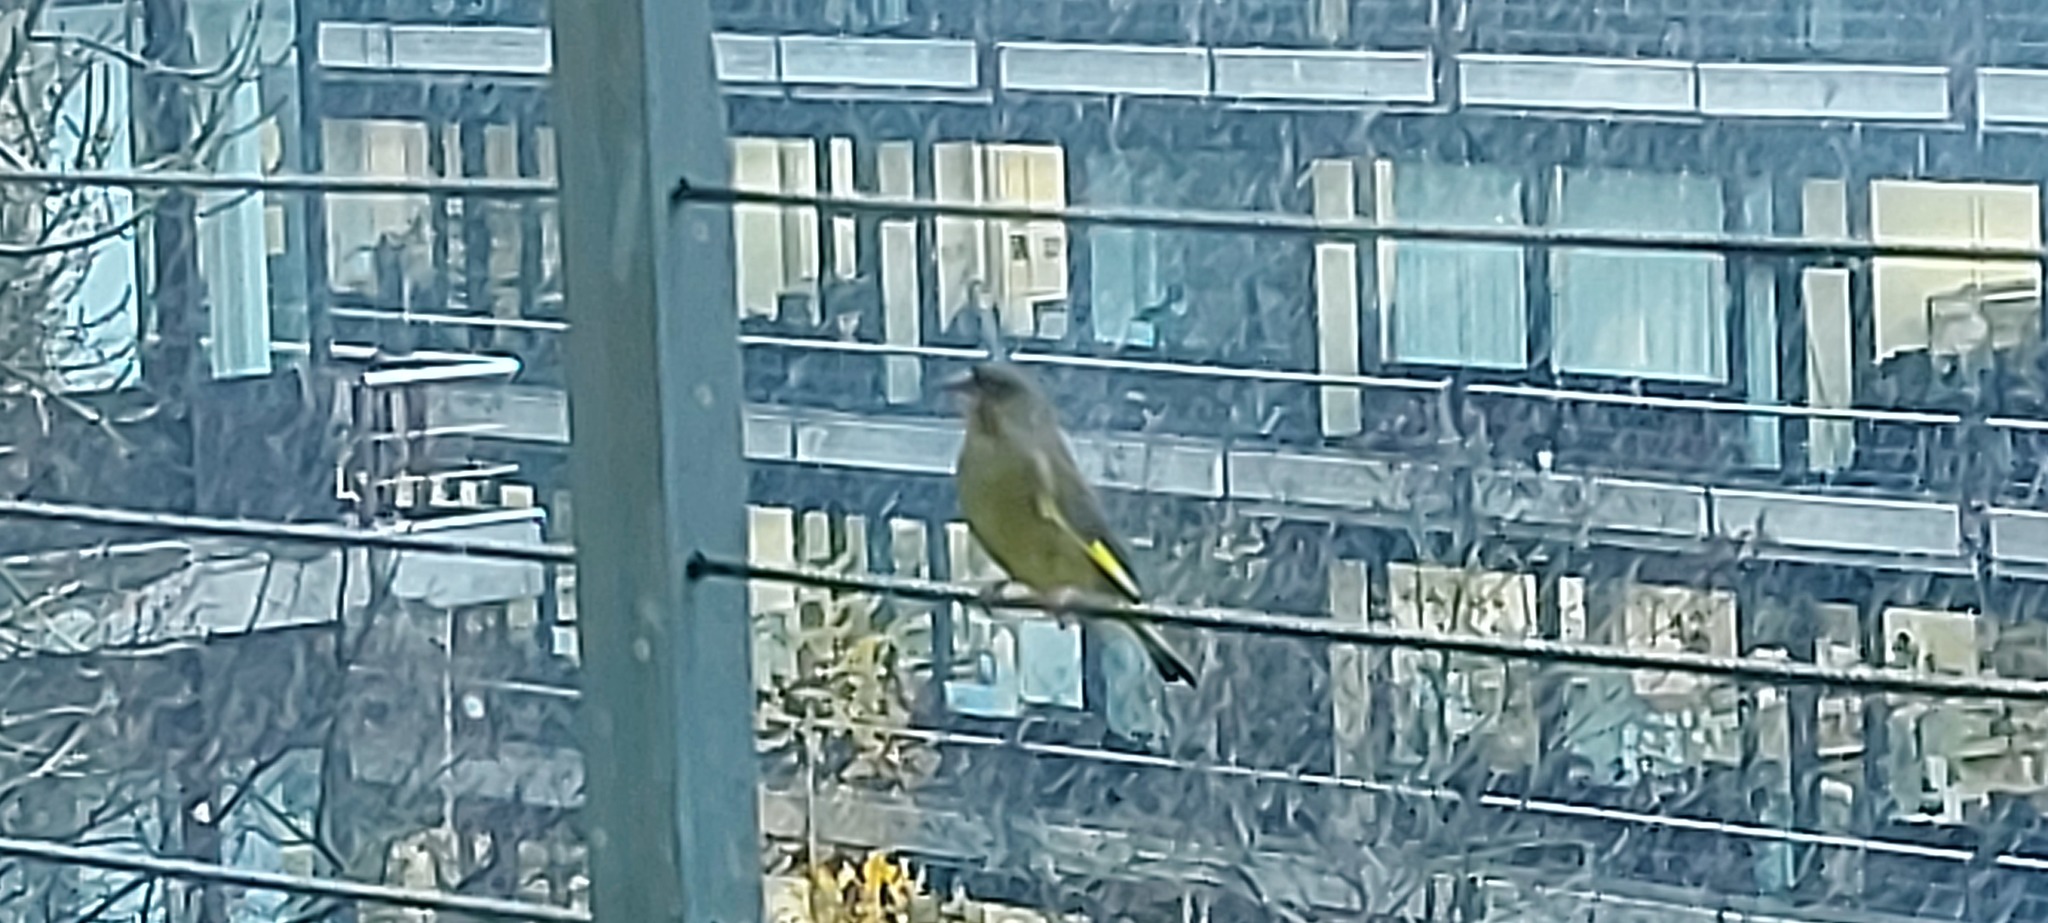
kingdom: Plantae
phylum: Tracheophyta
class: Liliopsida
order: Poales
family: Poaceae
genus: Chloris
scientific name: Chloris chloris
